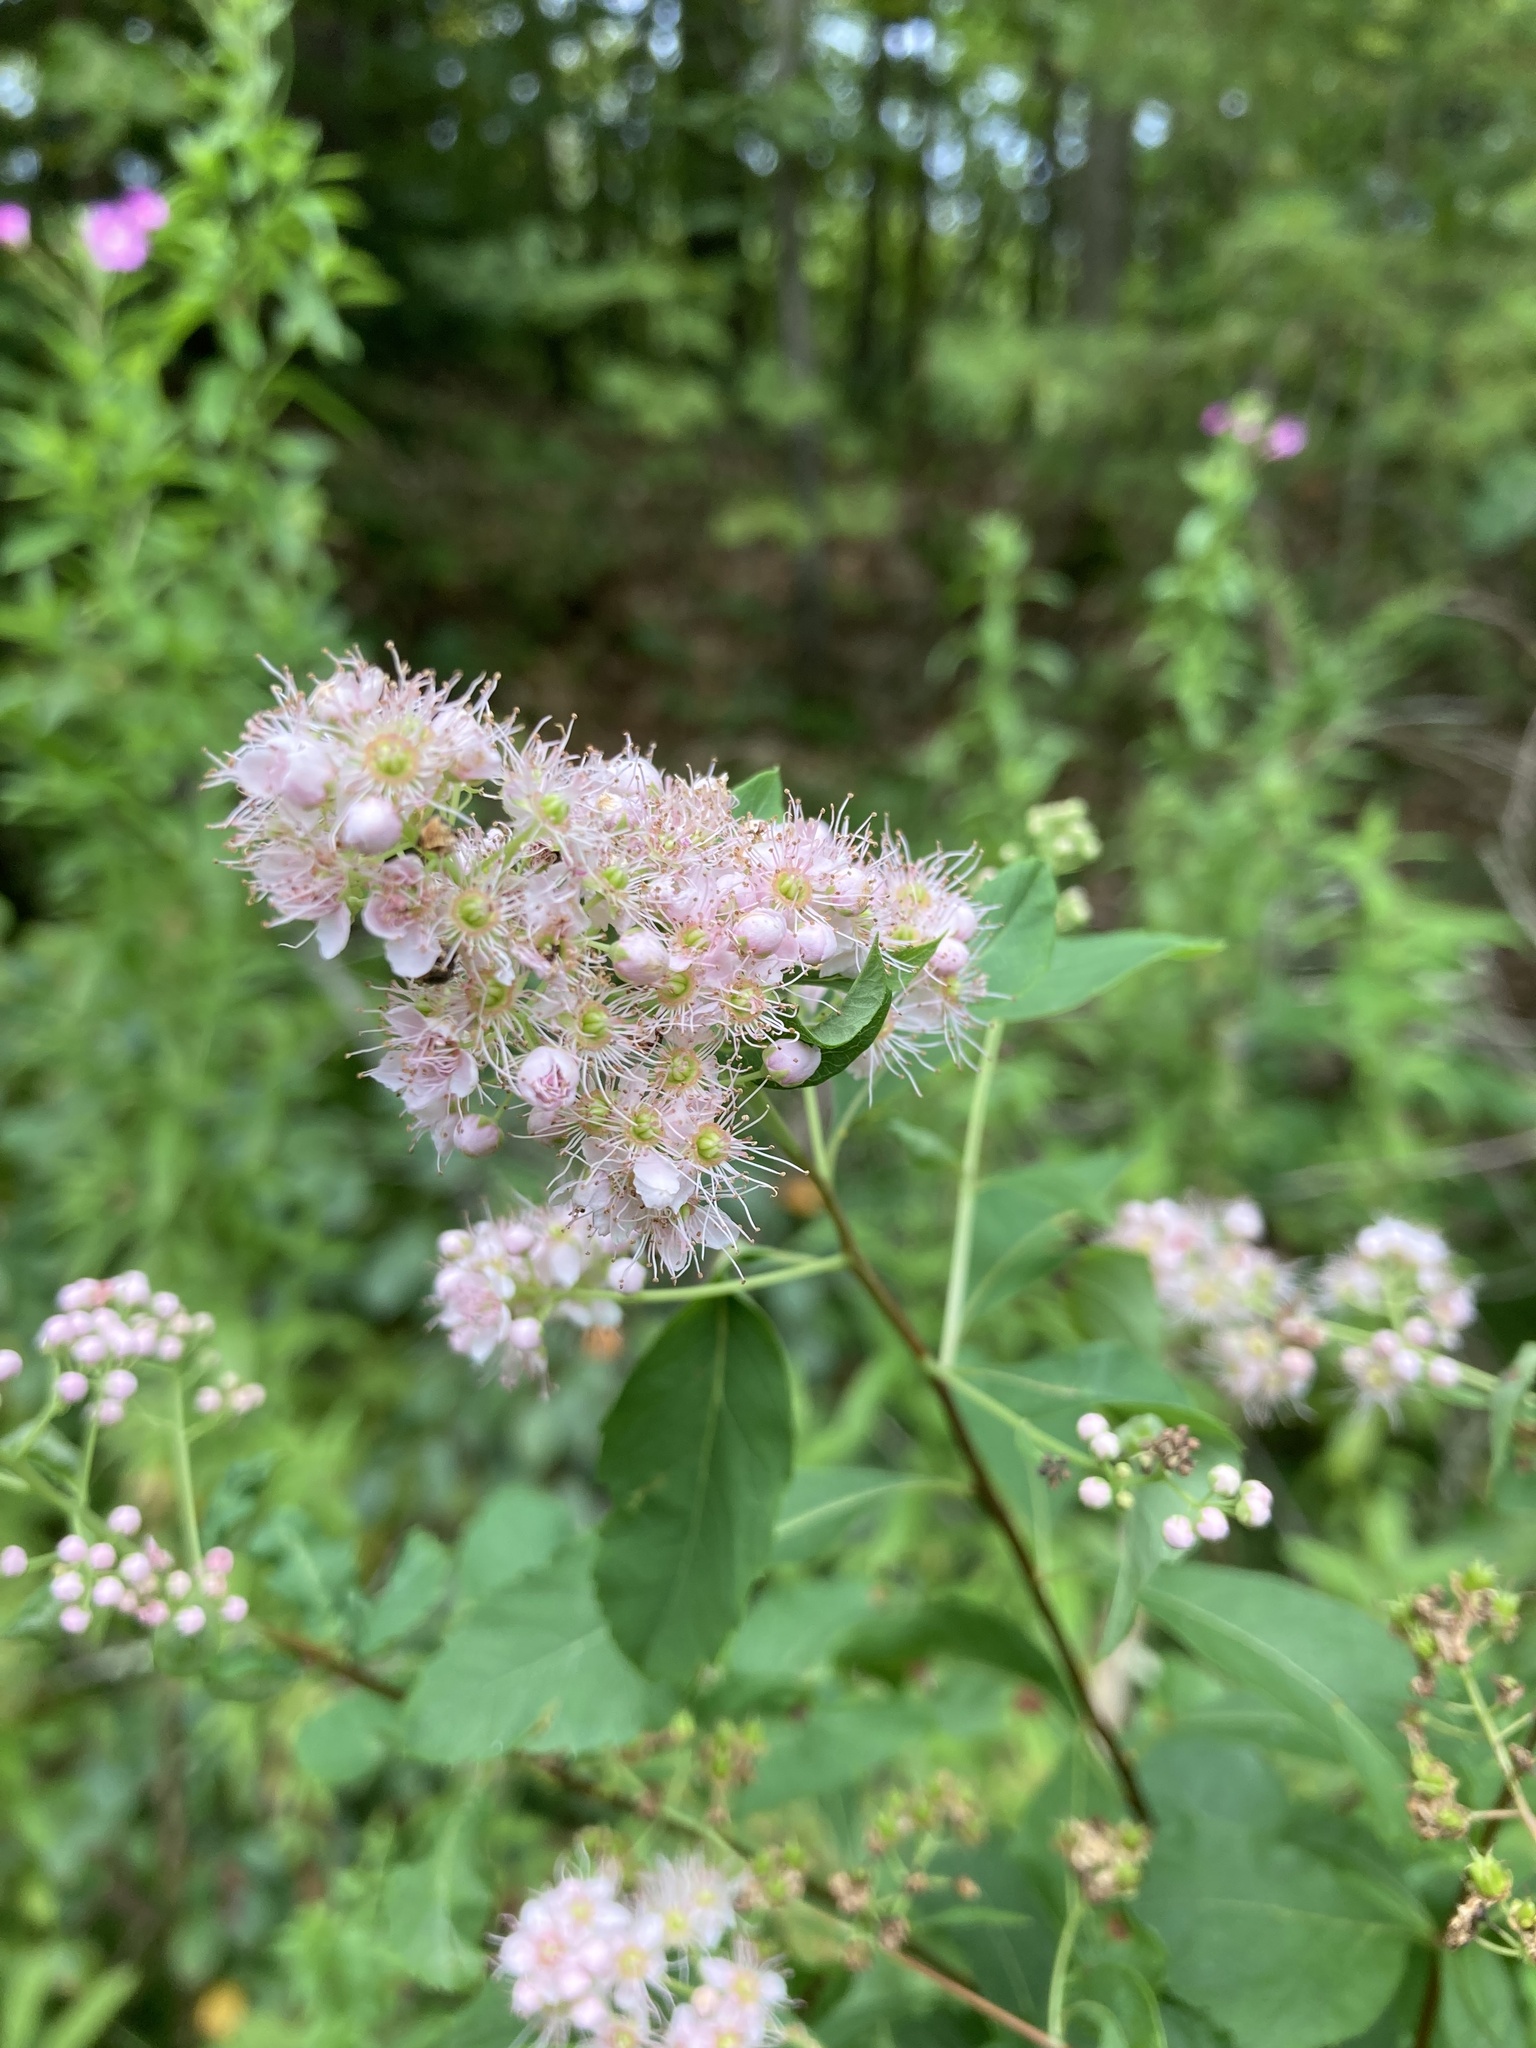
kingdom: Plantae
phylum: Tracheophyta
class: Magnoliopsida
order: Rosales
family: Rosaceae
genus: Spiraea
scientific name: Spiraea alba
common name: Pale bridewort
